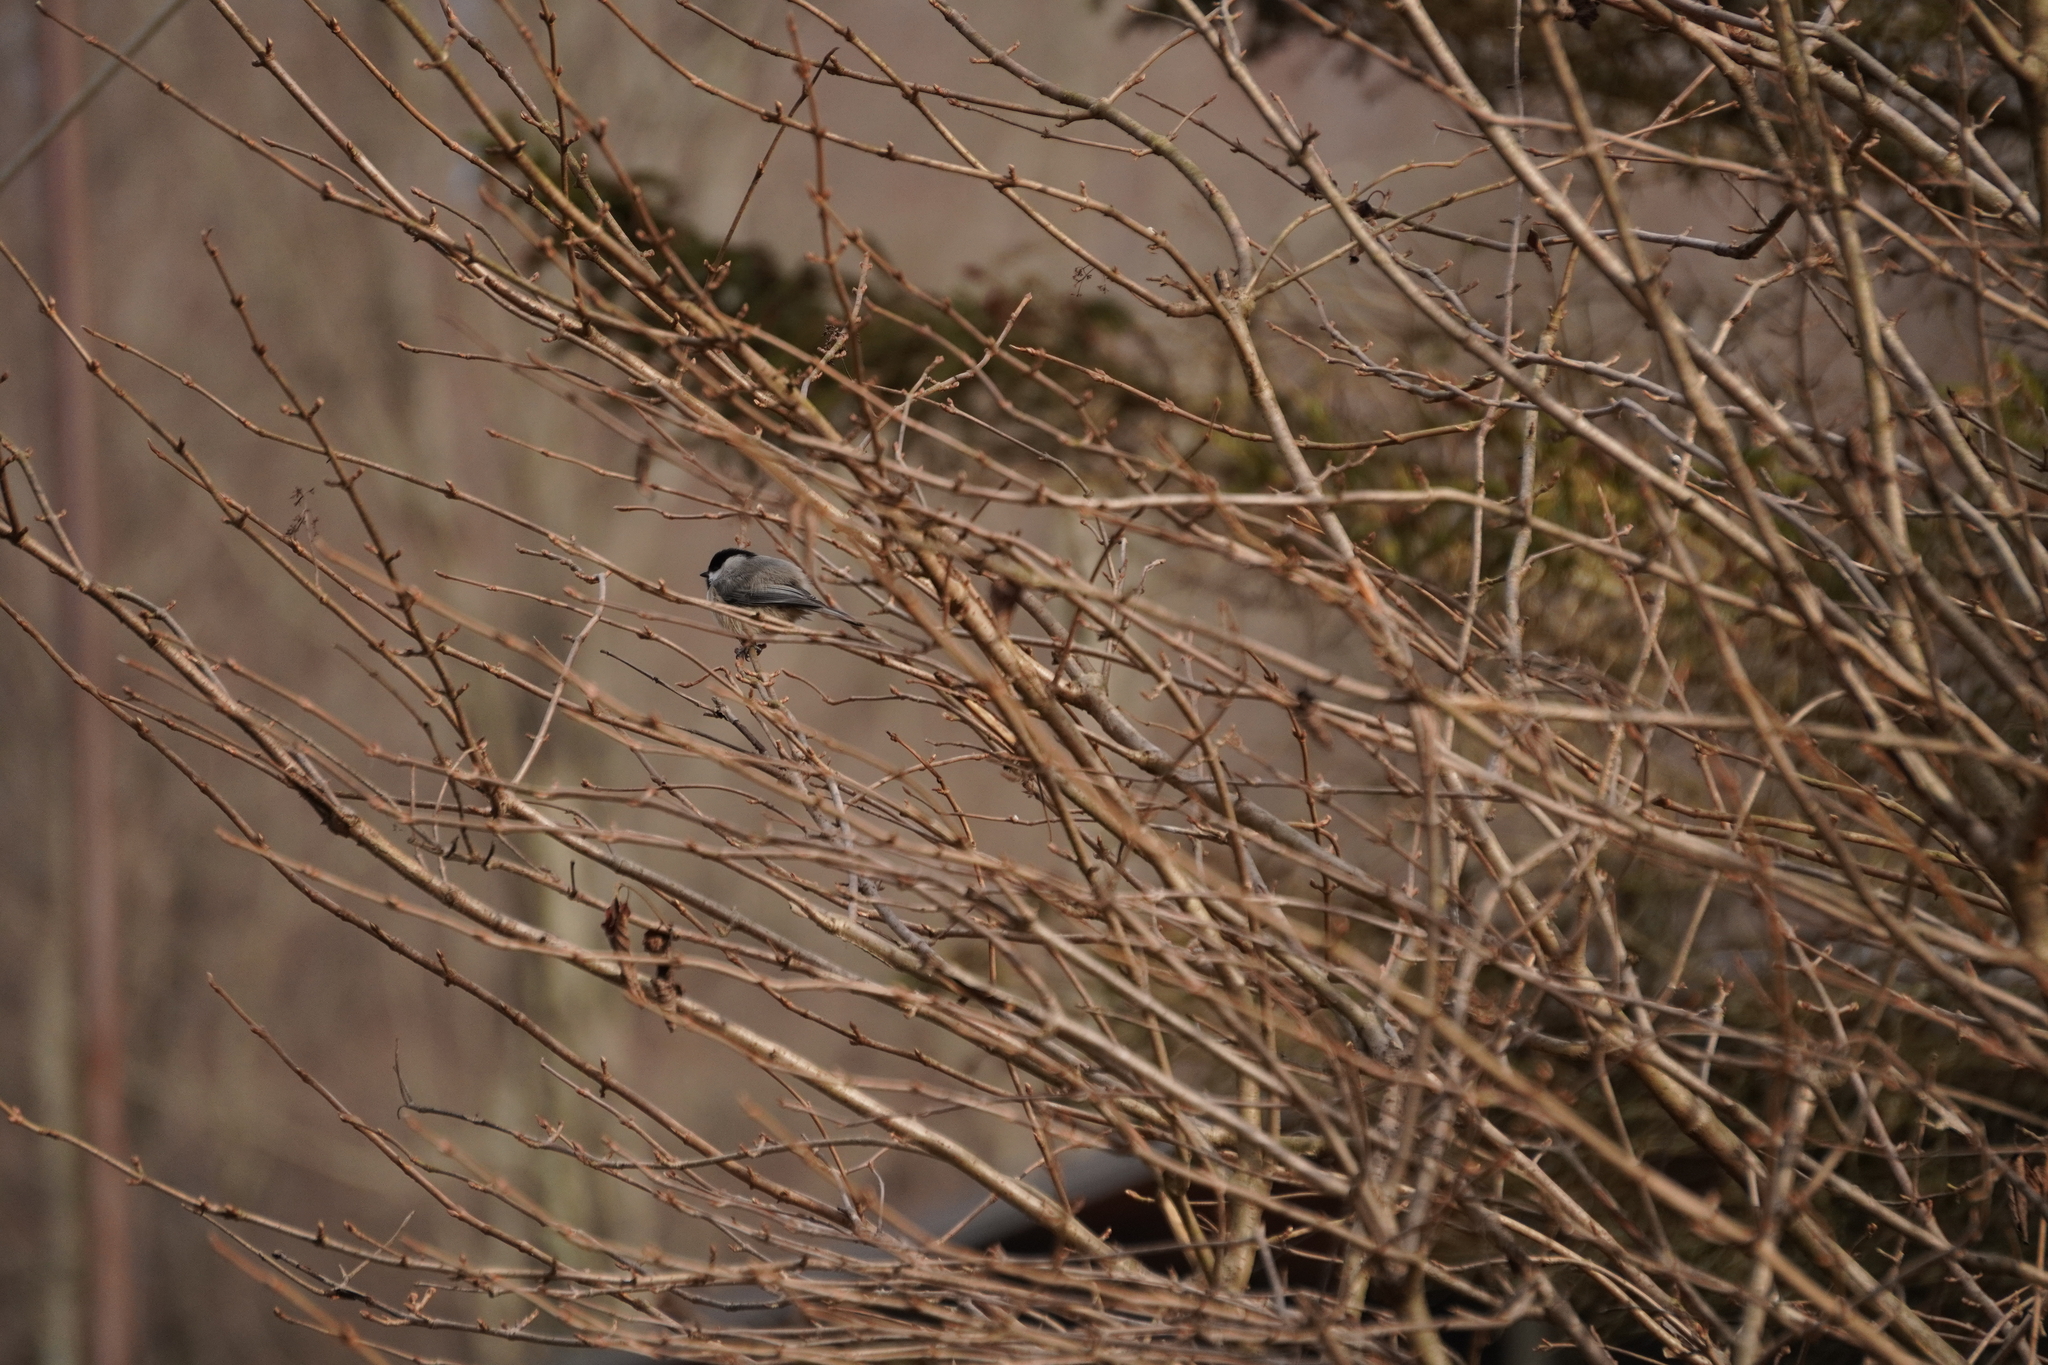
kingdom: Animalia
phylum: Chordata
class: Aves
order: Passeriformes
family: Paridae
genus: Poecile
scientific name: Poecile
